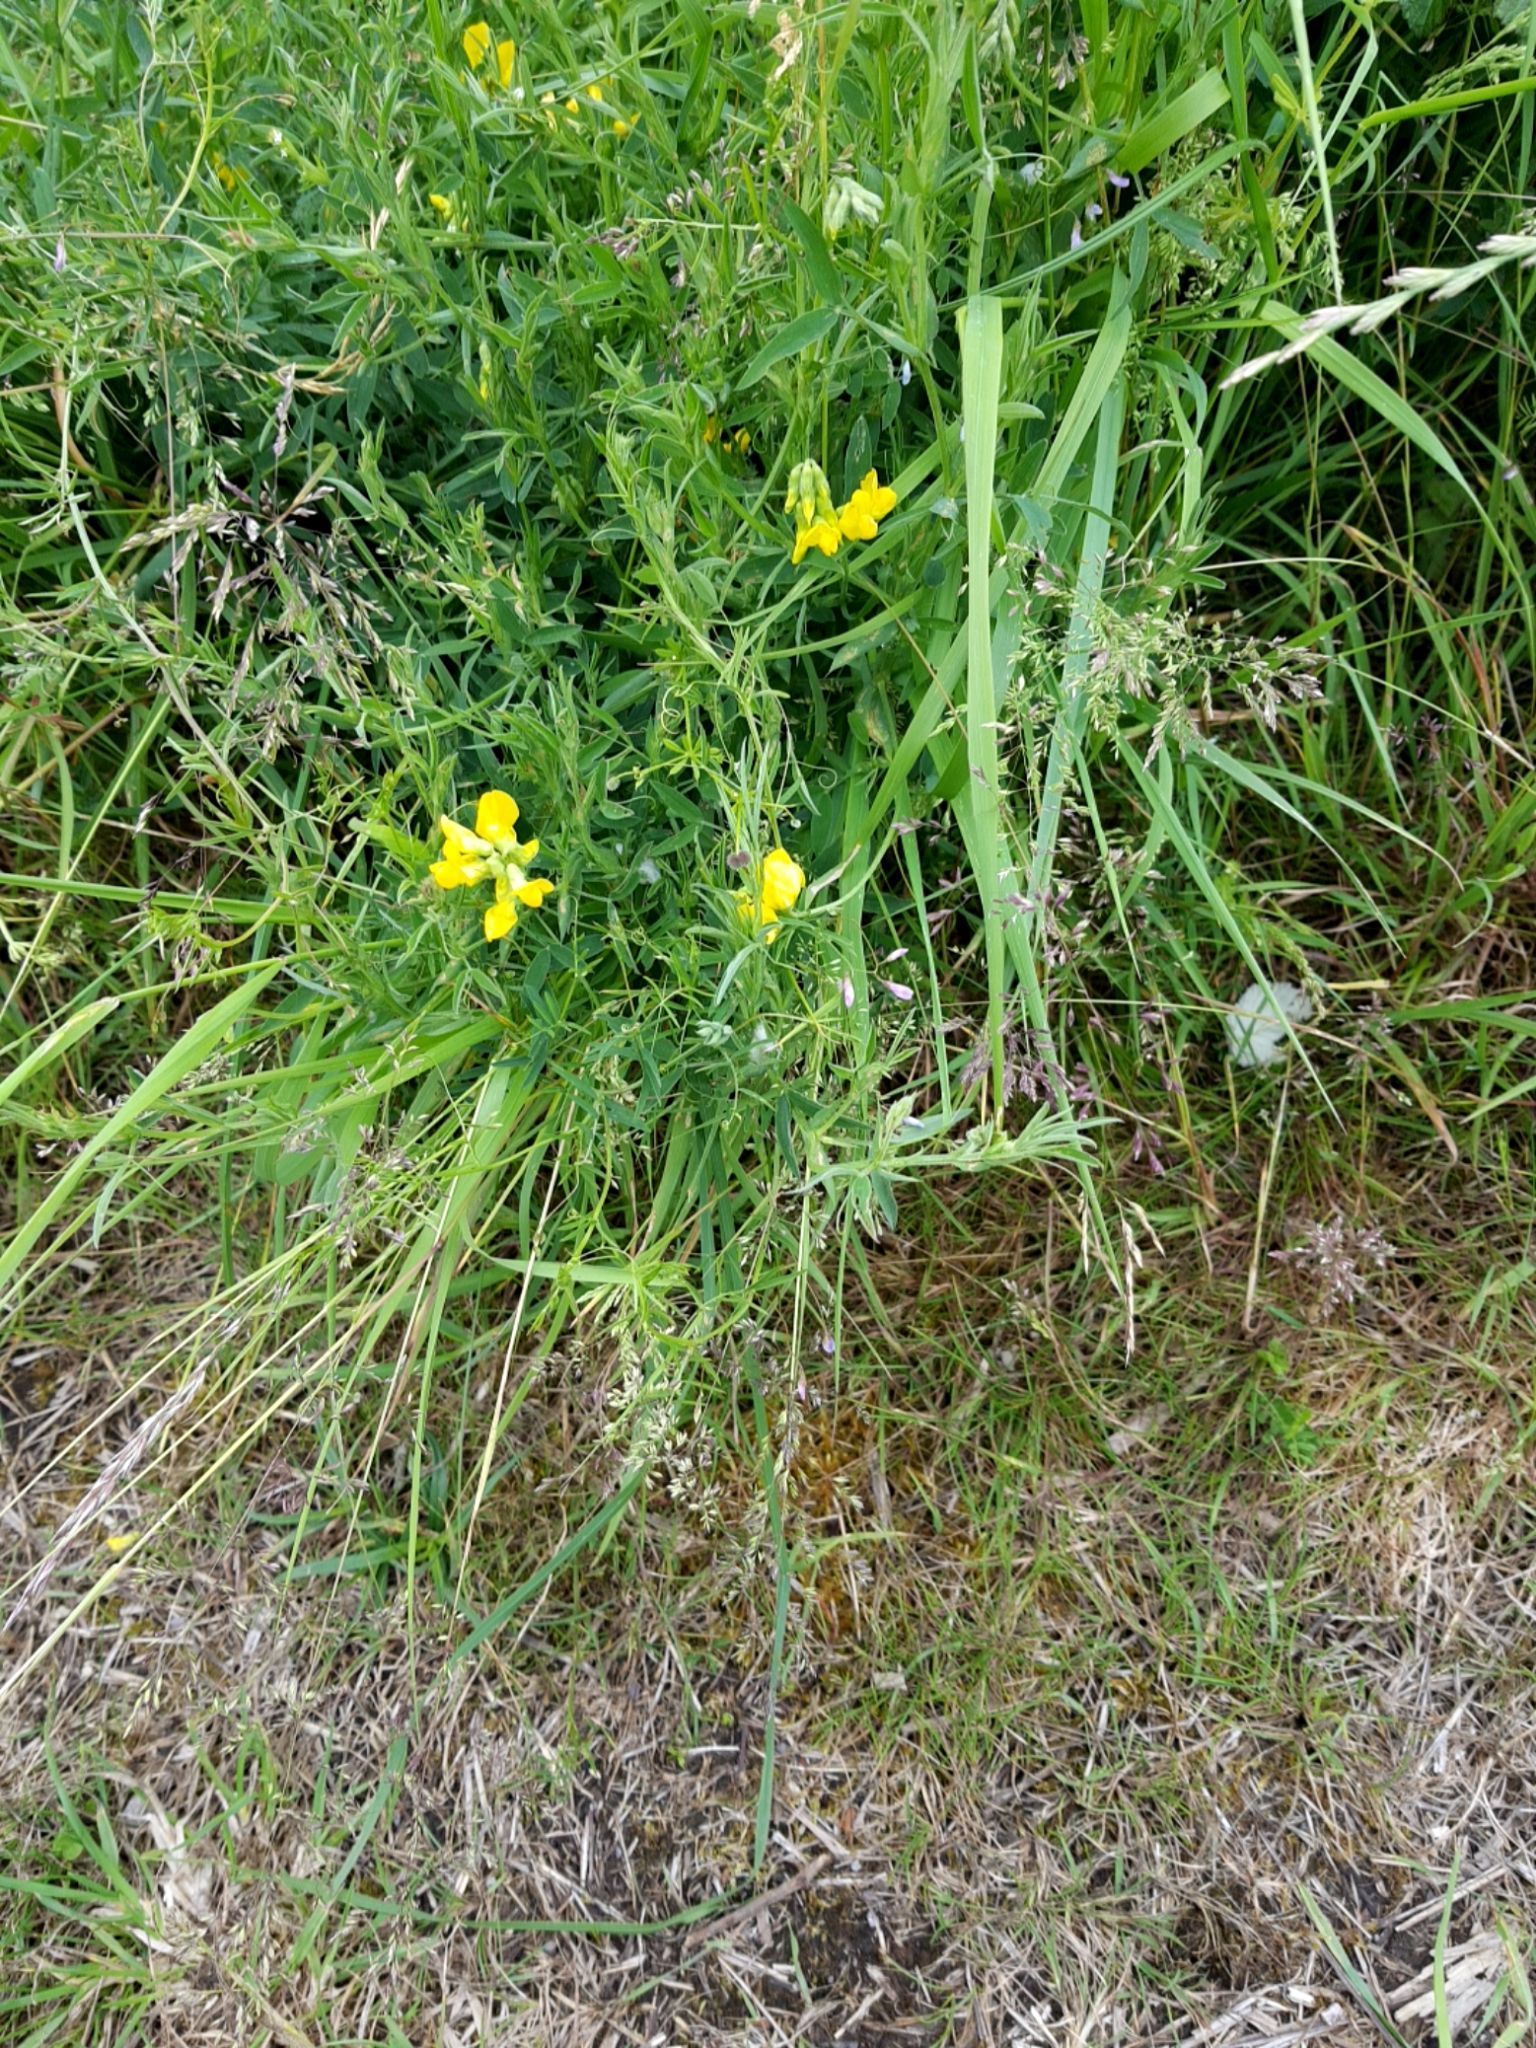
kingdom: Plantae
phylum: Tracheophyta
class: Magnoliopsida
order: Fabales
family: Fabaceae
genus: Lotus
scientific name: Lotus corniculatus
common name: Common bird's-foot-trefoil
